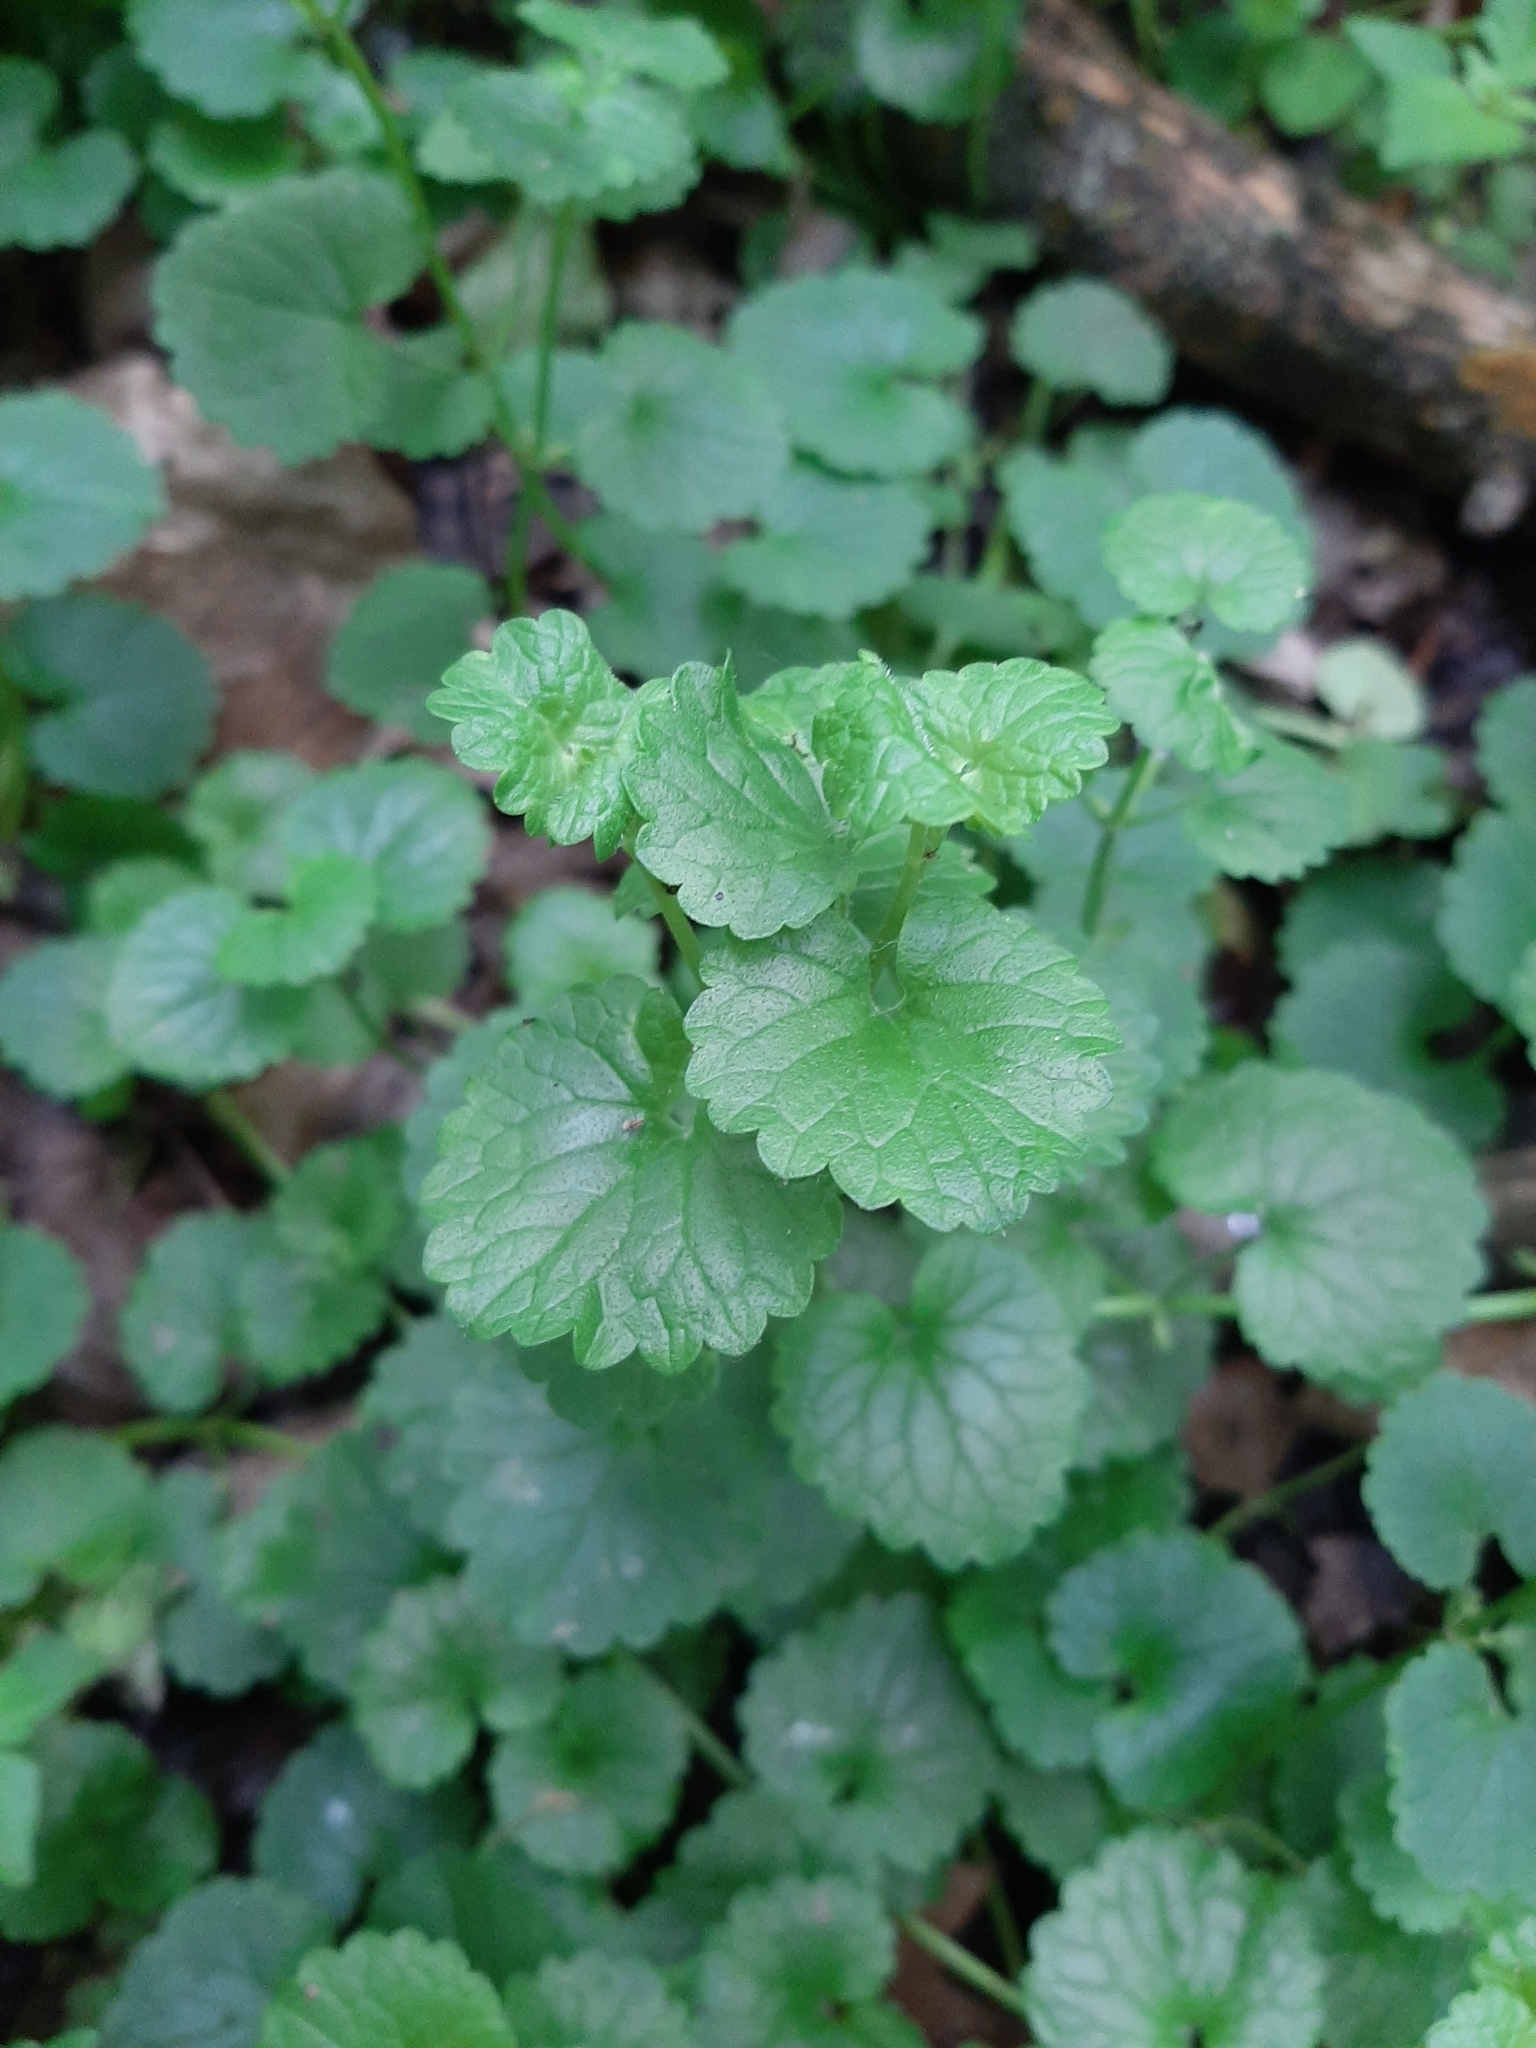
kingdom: Plantae
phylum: Tracheophyta
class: Magnoliopsida
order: Lamiales
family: Lamiaceae
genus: Glechoma
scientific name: Glechoma hederacea
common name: Ground ivy
